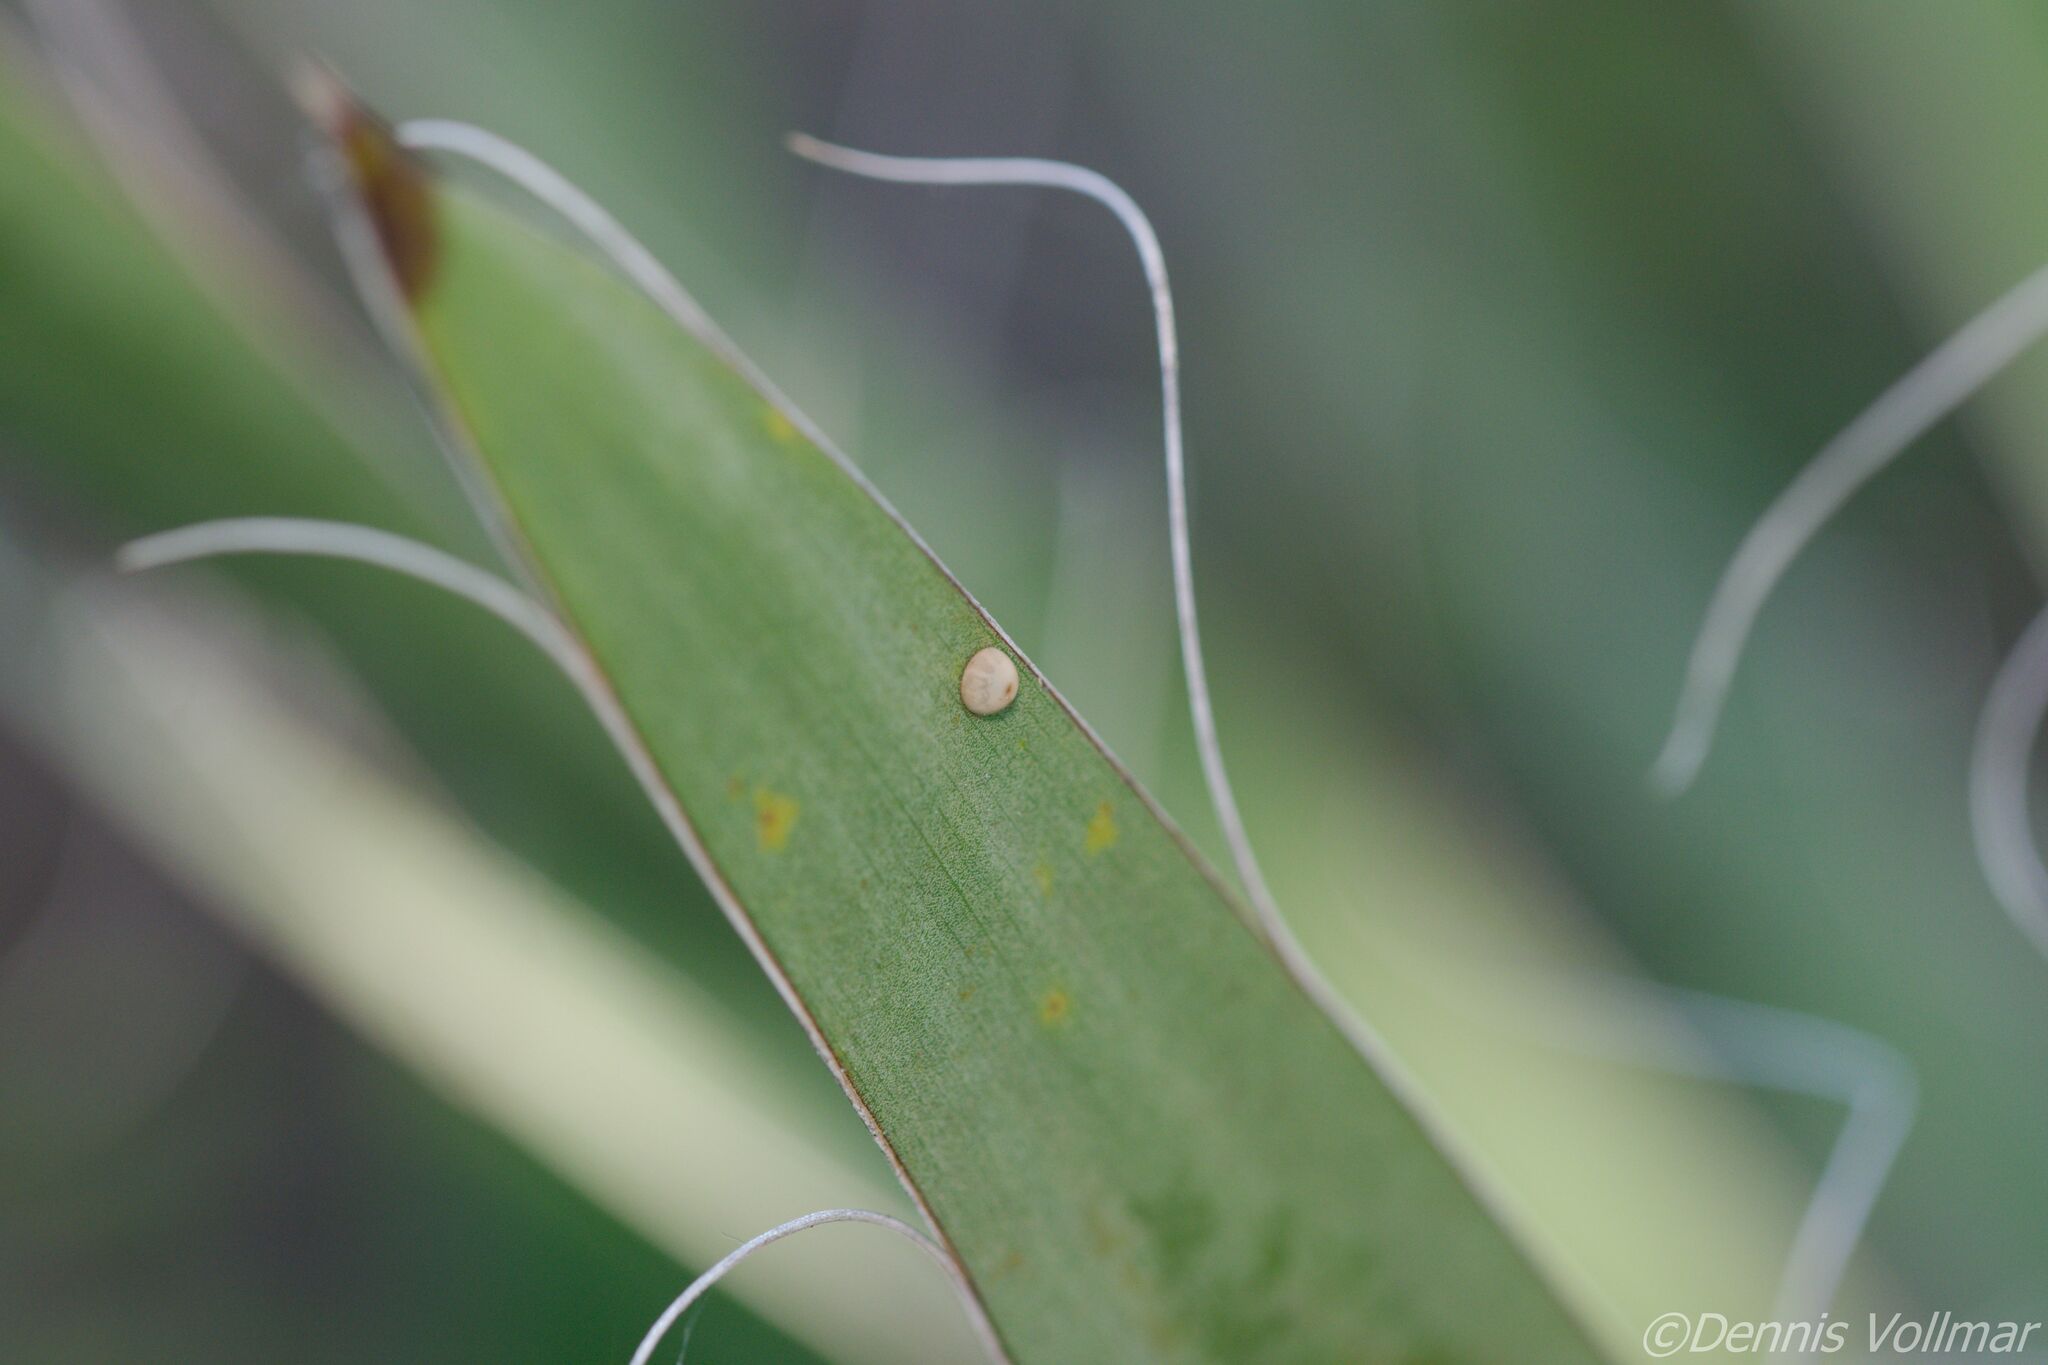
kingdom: Animalia
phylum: Arthropoda
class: Insecta
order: Lepidoptera
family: Hesperiidae
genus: Megathymus
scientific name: Megathymus yuccae
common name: Yucca giant-skipper
